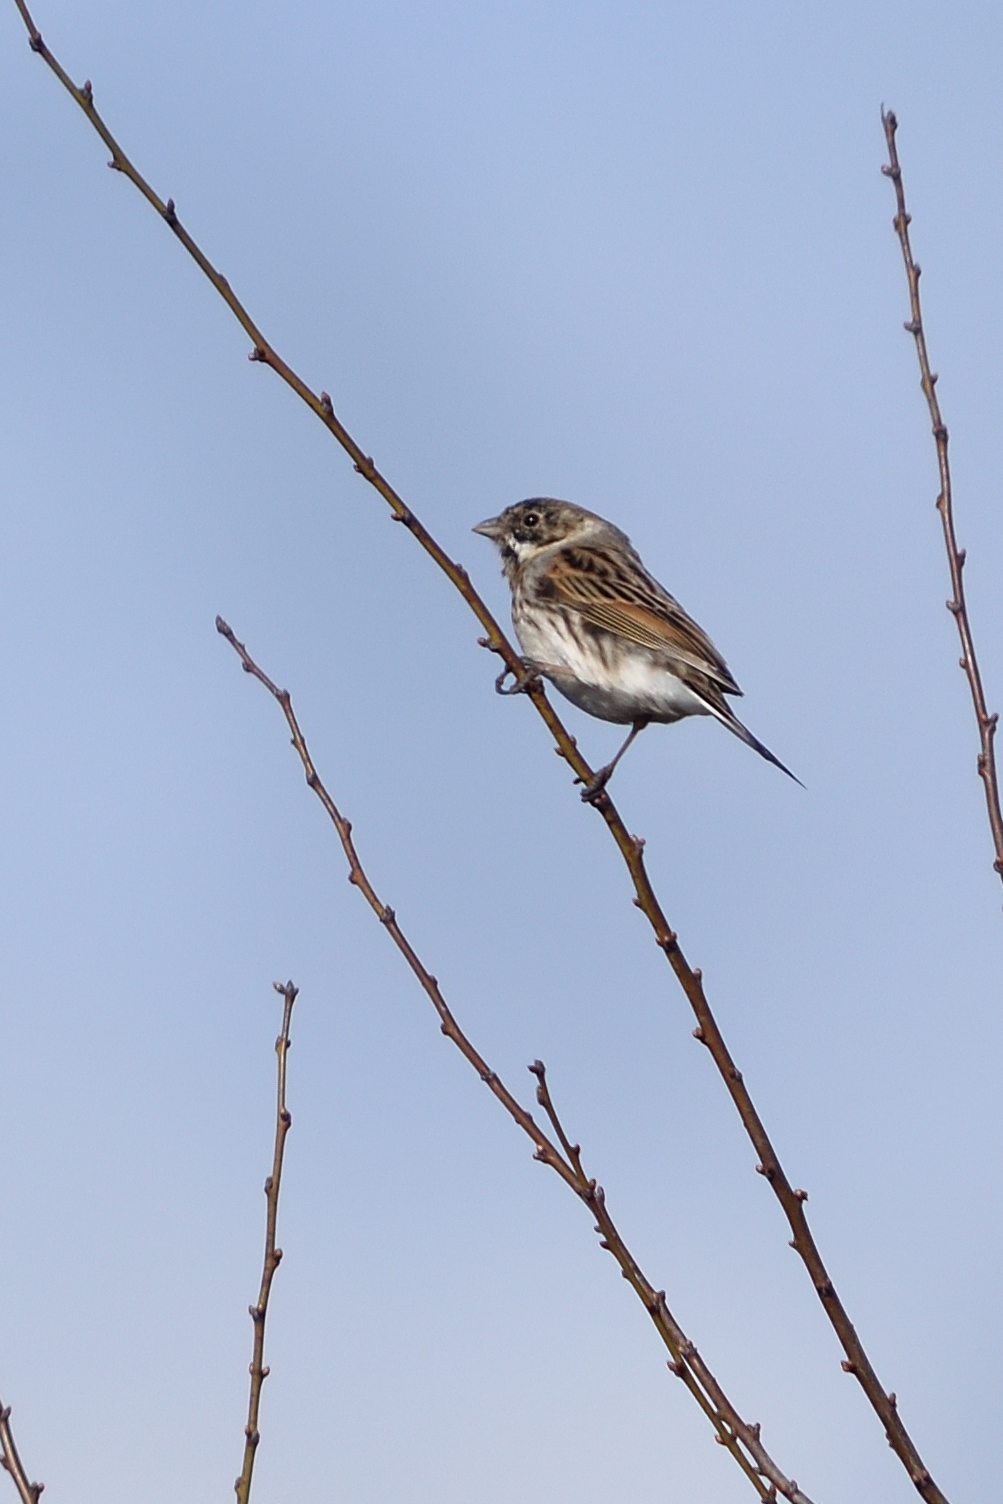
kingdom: Animalia
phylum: Chordata
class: Aves
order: Passeriformes
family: Emberizidae
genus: Emberiza
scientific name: Emberiza schoeniclus
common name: Reed bunting
